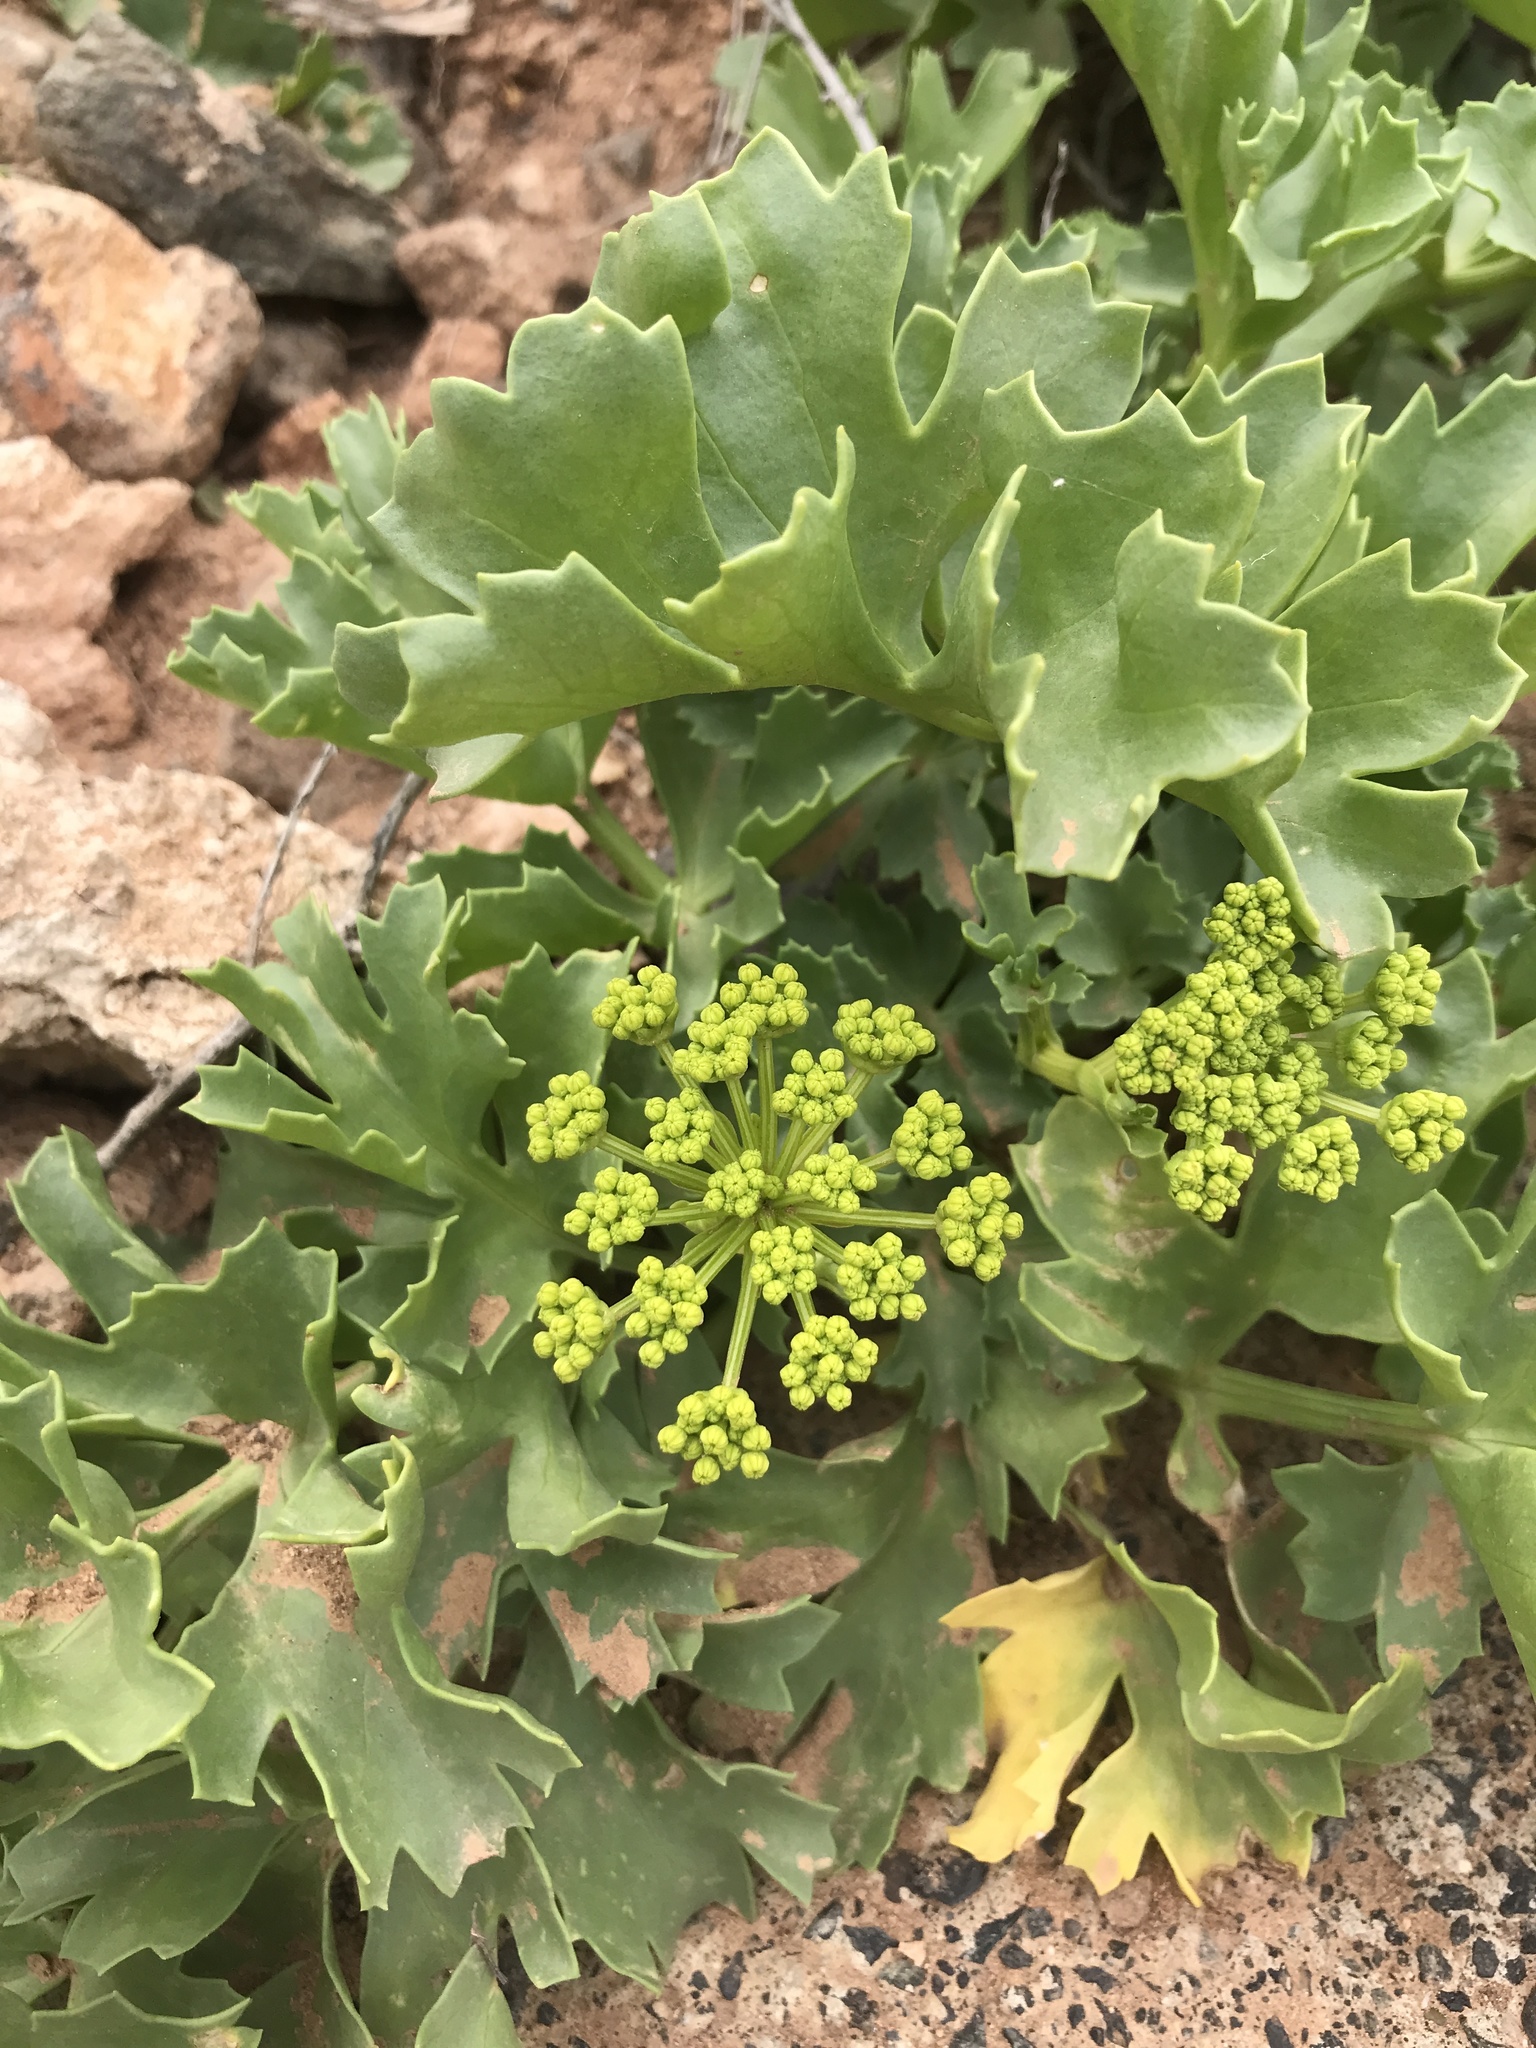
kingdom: Plantae
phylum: Tracheophyta
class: Magnoliopsida
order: Apiales
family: Apiaceae
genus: Astydamia
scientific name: Astydamia latifolia
